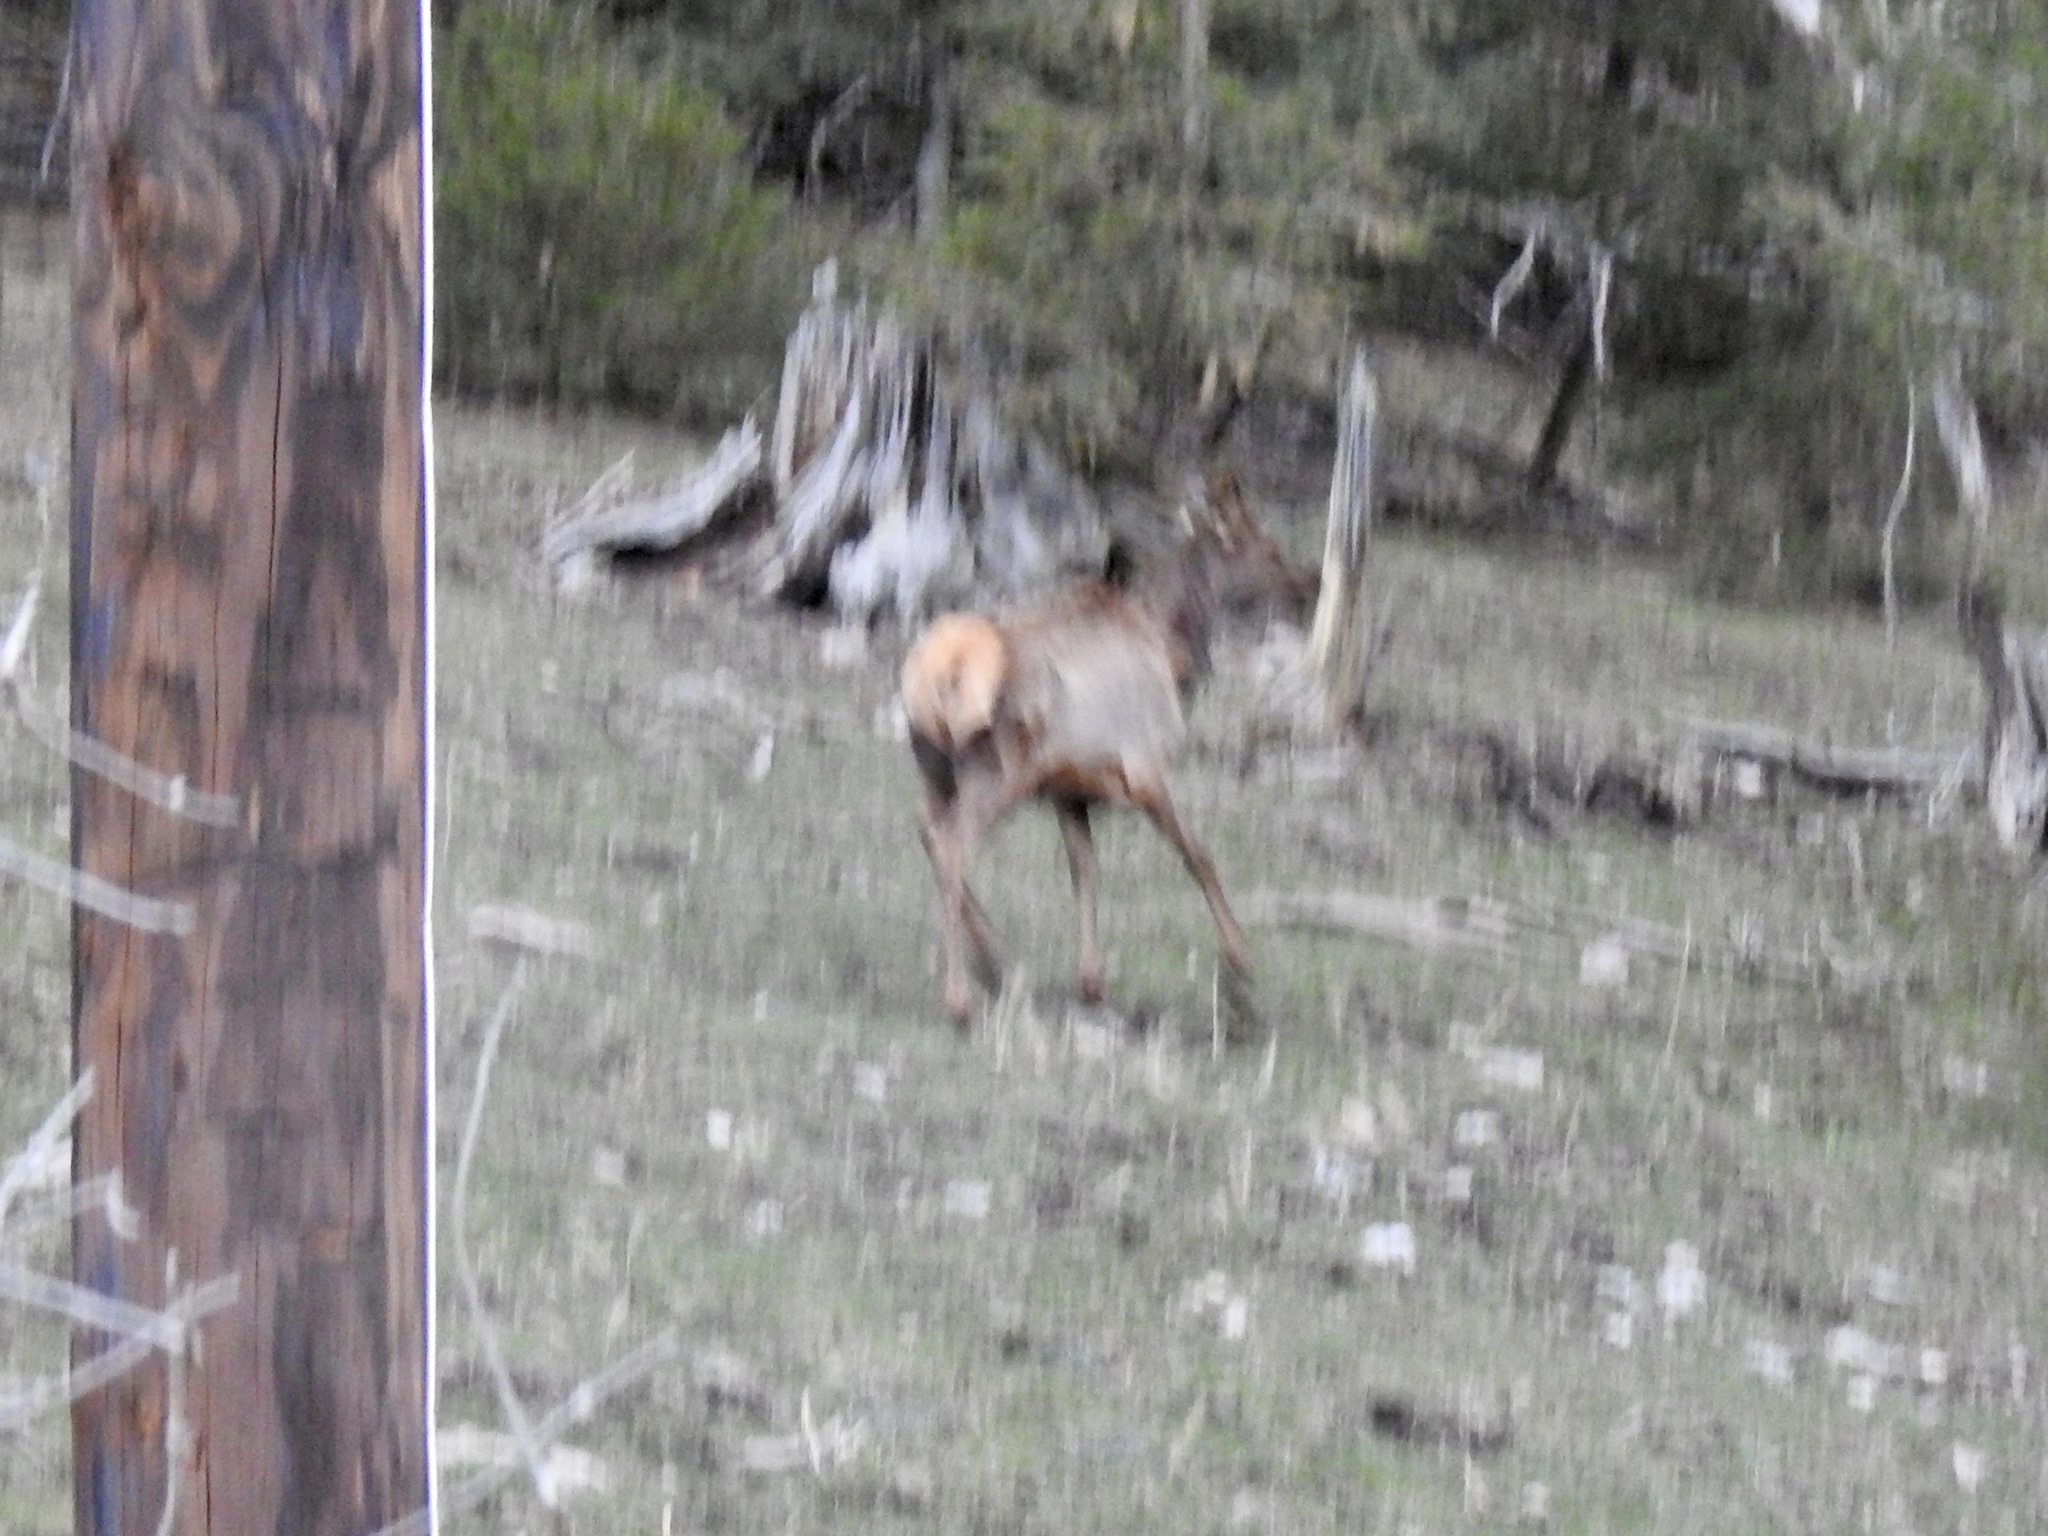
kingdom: Animalia
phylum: Chordata
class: Mammalia
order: Artiodactyla
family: Cervidae
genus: Cervus
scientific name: Cervus elaphus
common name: Red deer
